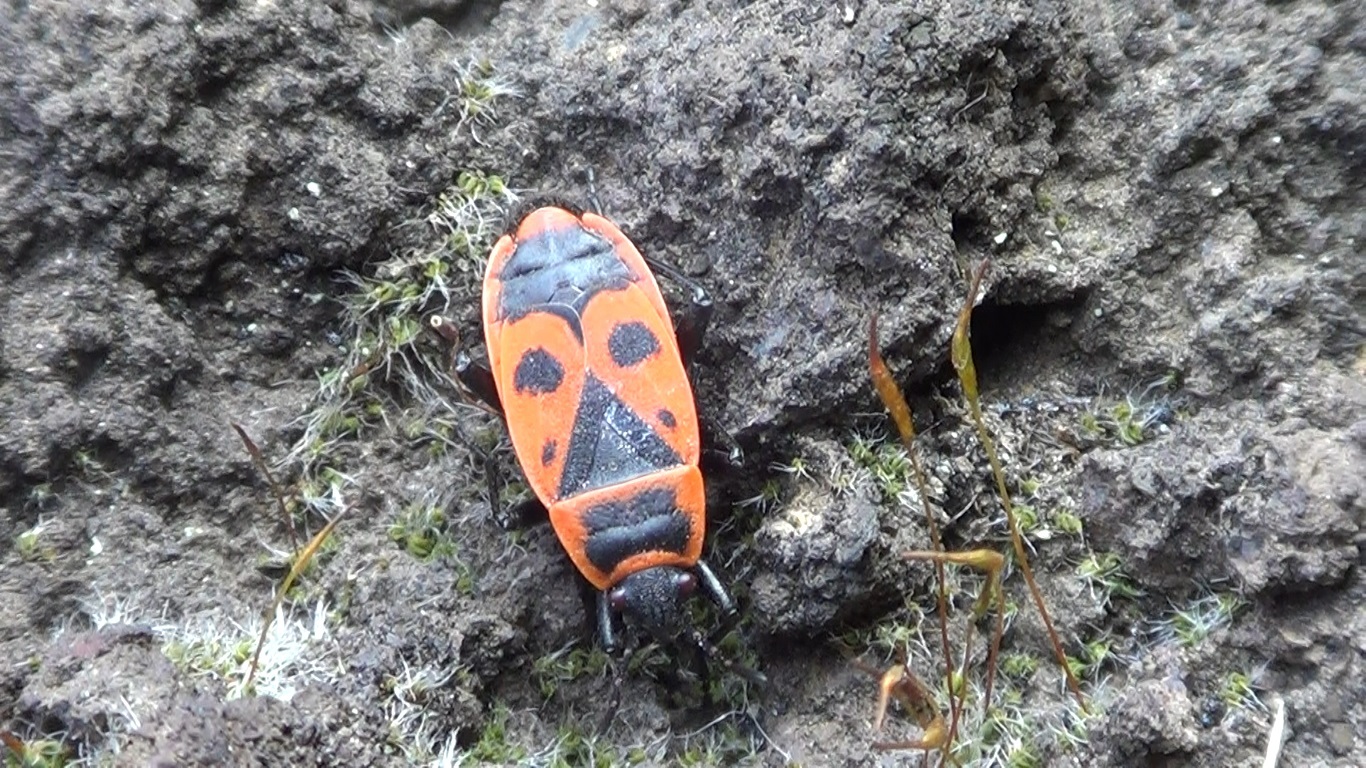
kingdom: Animalia
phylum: Arthropoda
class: Insecta
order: Hemiptera
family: Pyrrhocoridae
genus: Pyrrhocoris
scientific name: Pyrrhocoris apterus
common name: Firebug
